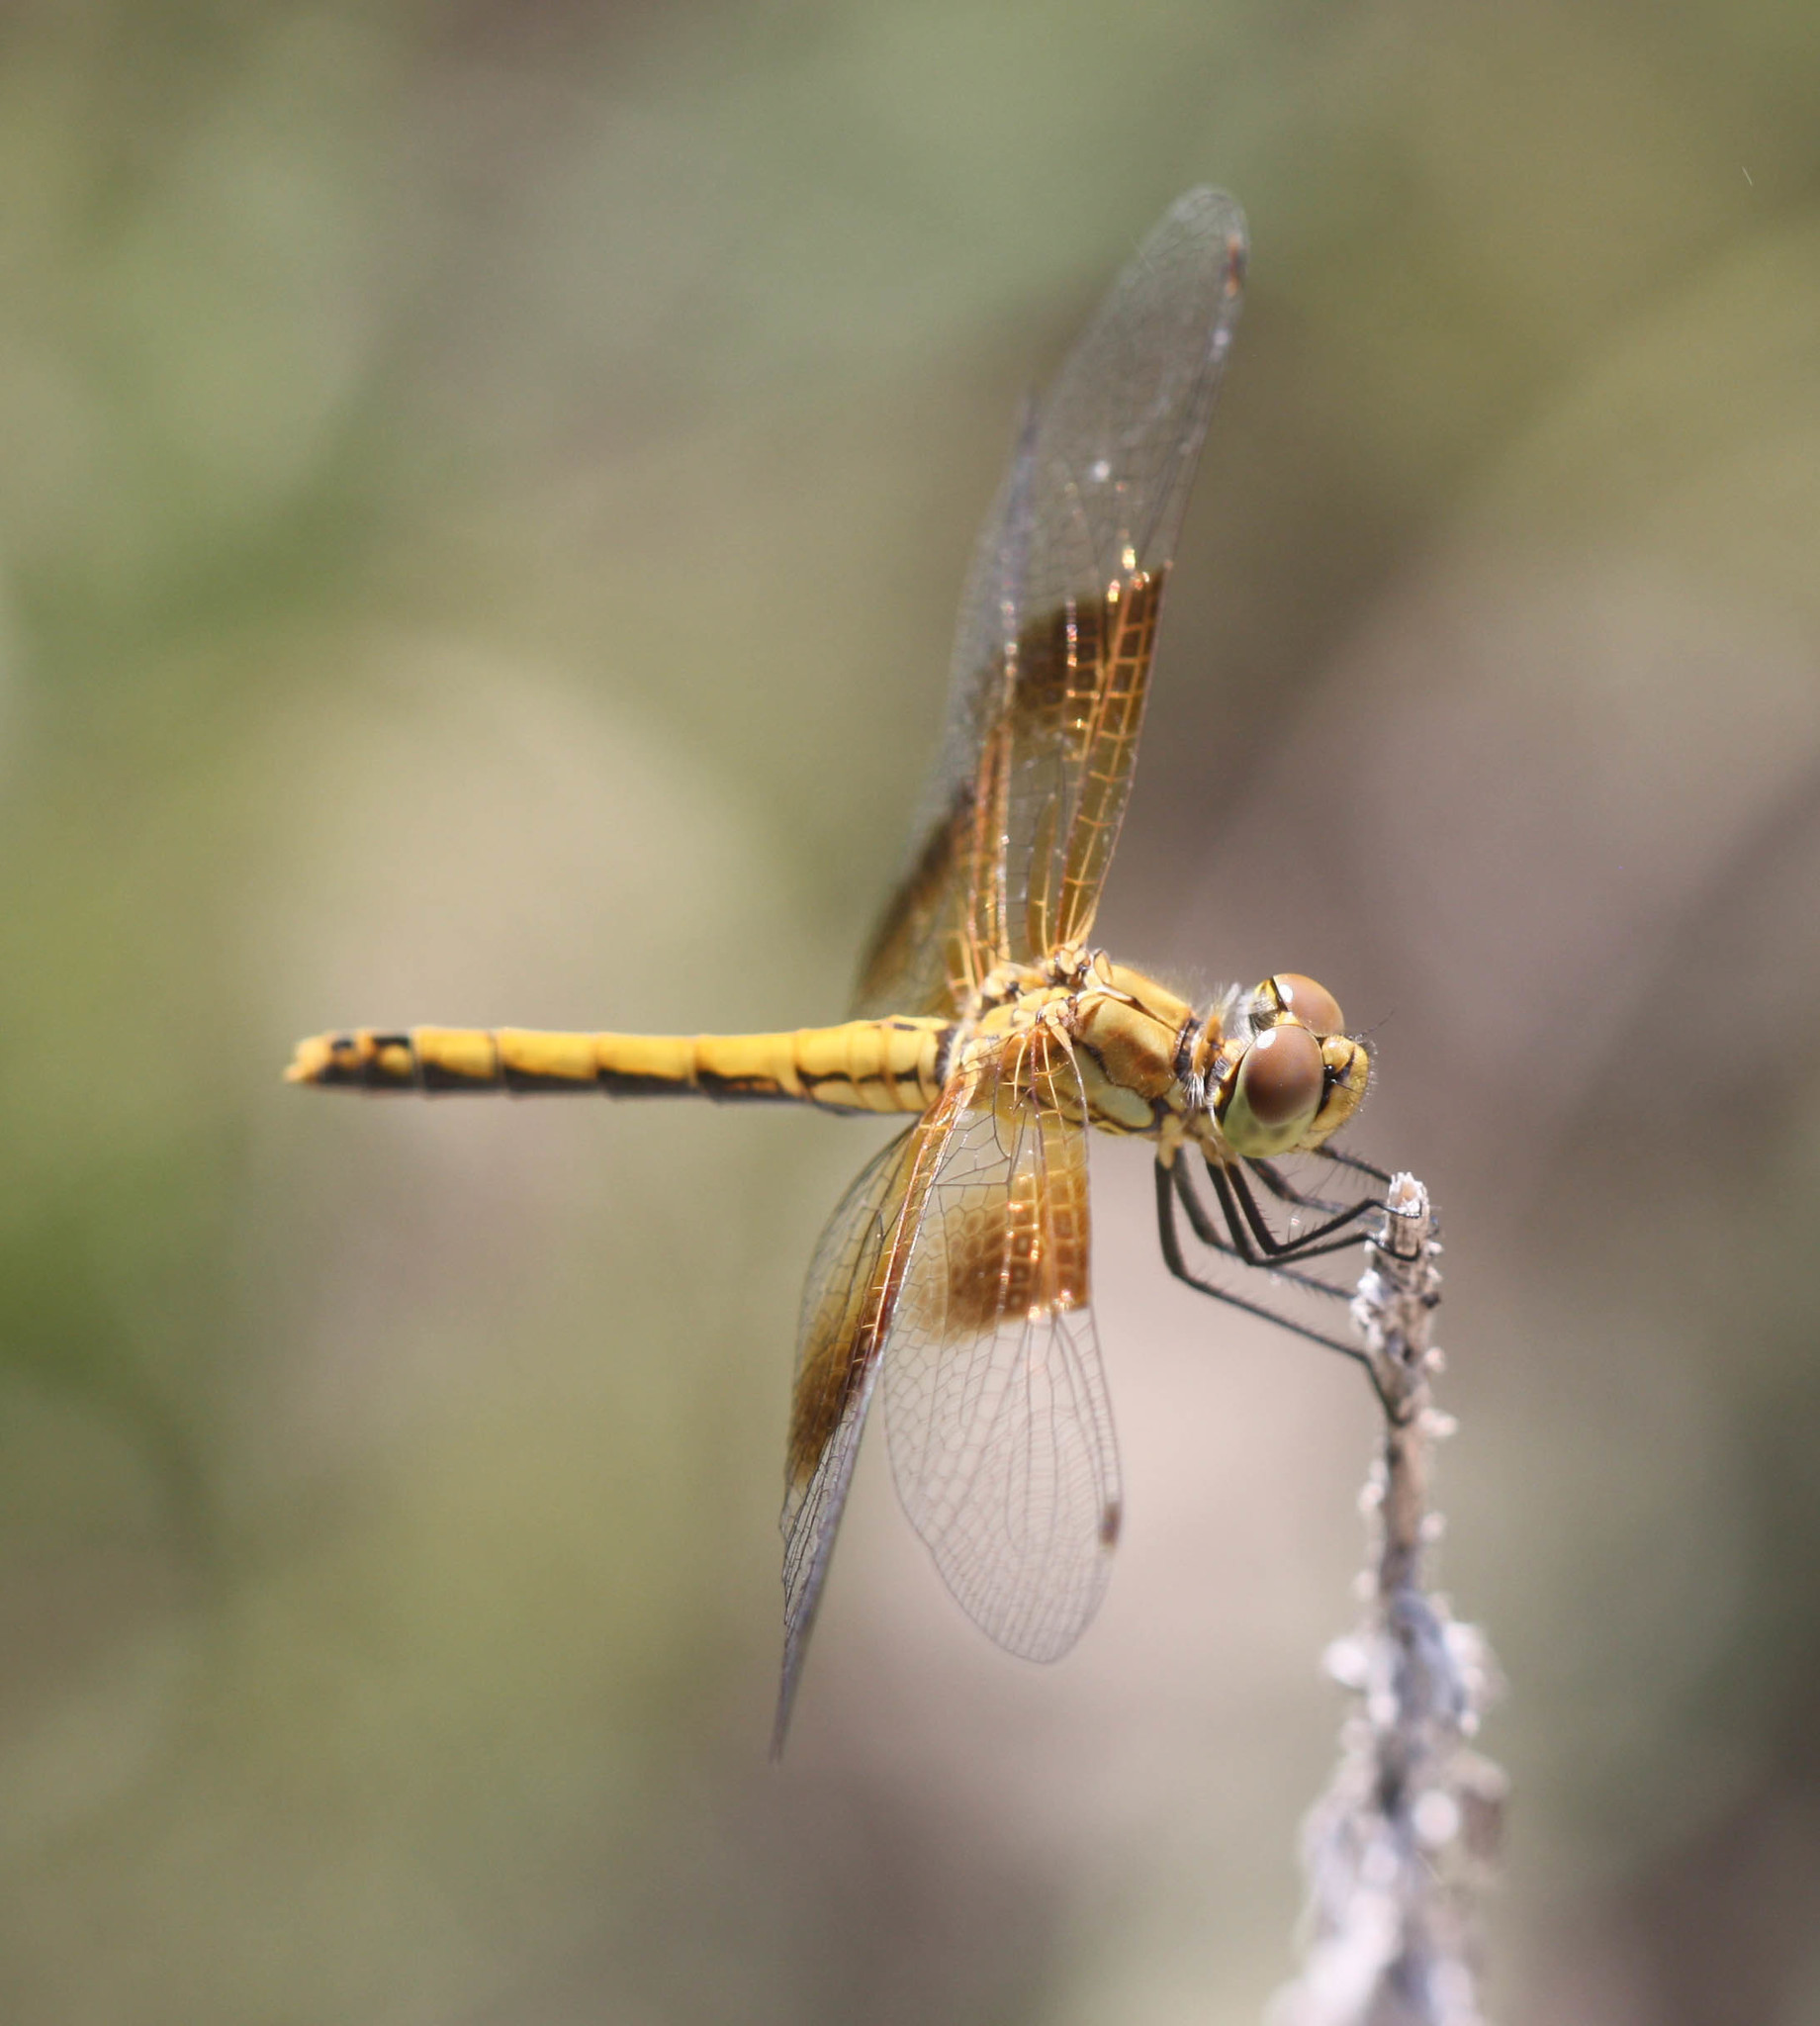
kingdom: Animalia
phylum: Arthropoda
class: Insecta
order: Odonata
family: Libellulidae
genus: Sympetrum
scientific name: Sympetrum semicinctum
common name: Band-winged meadowhawk
